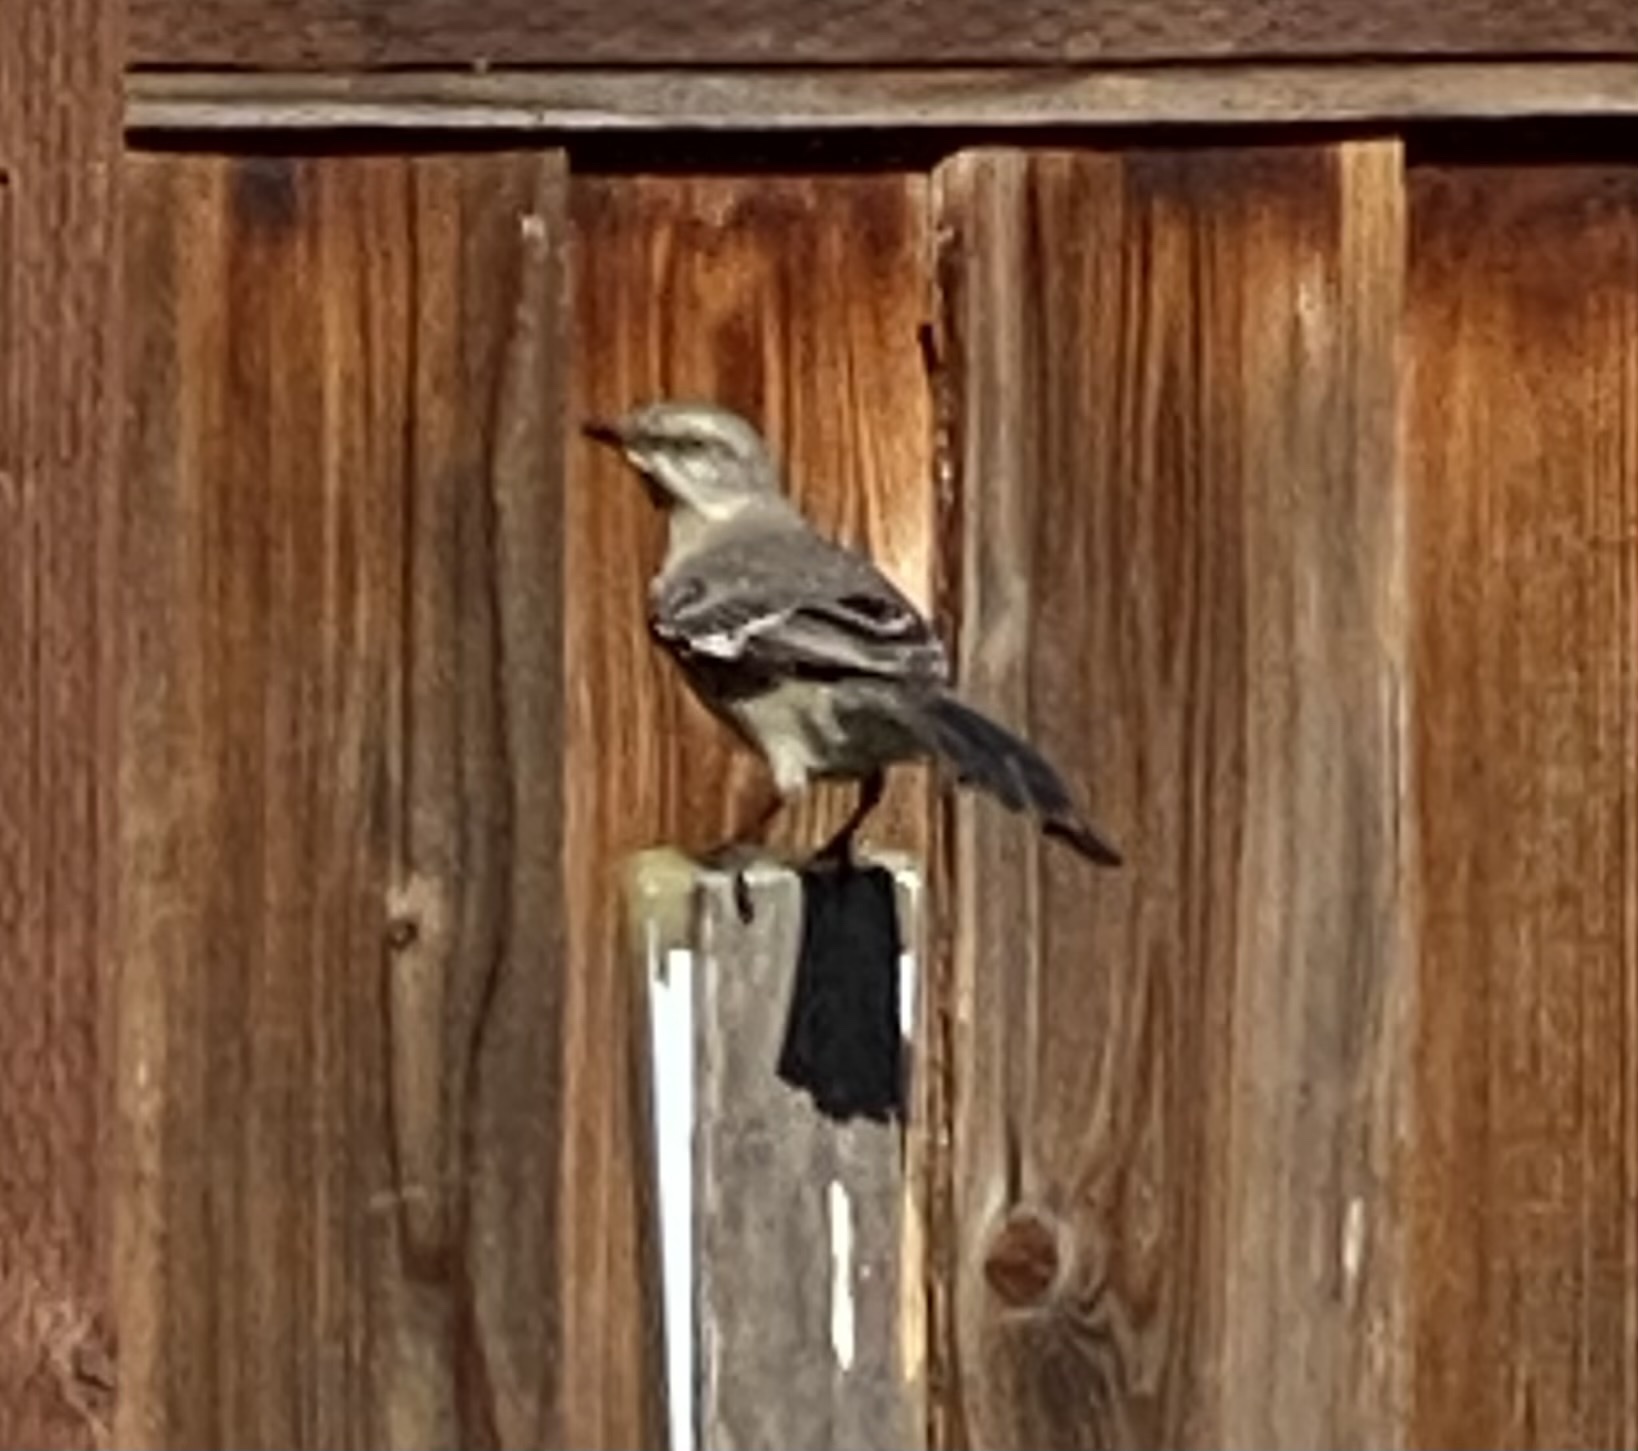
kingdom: Animalia
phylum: Chordata
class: Aves
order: Passeriformes
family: Mimidae
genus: Mimus
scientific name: Mimus polyglottos
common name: Northern mockingbird
